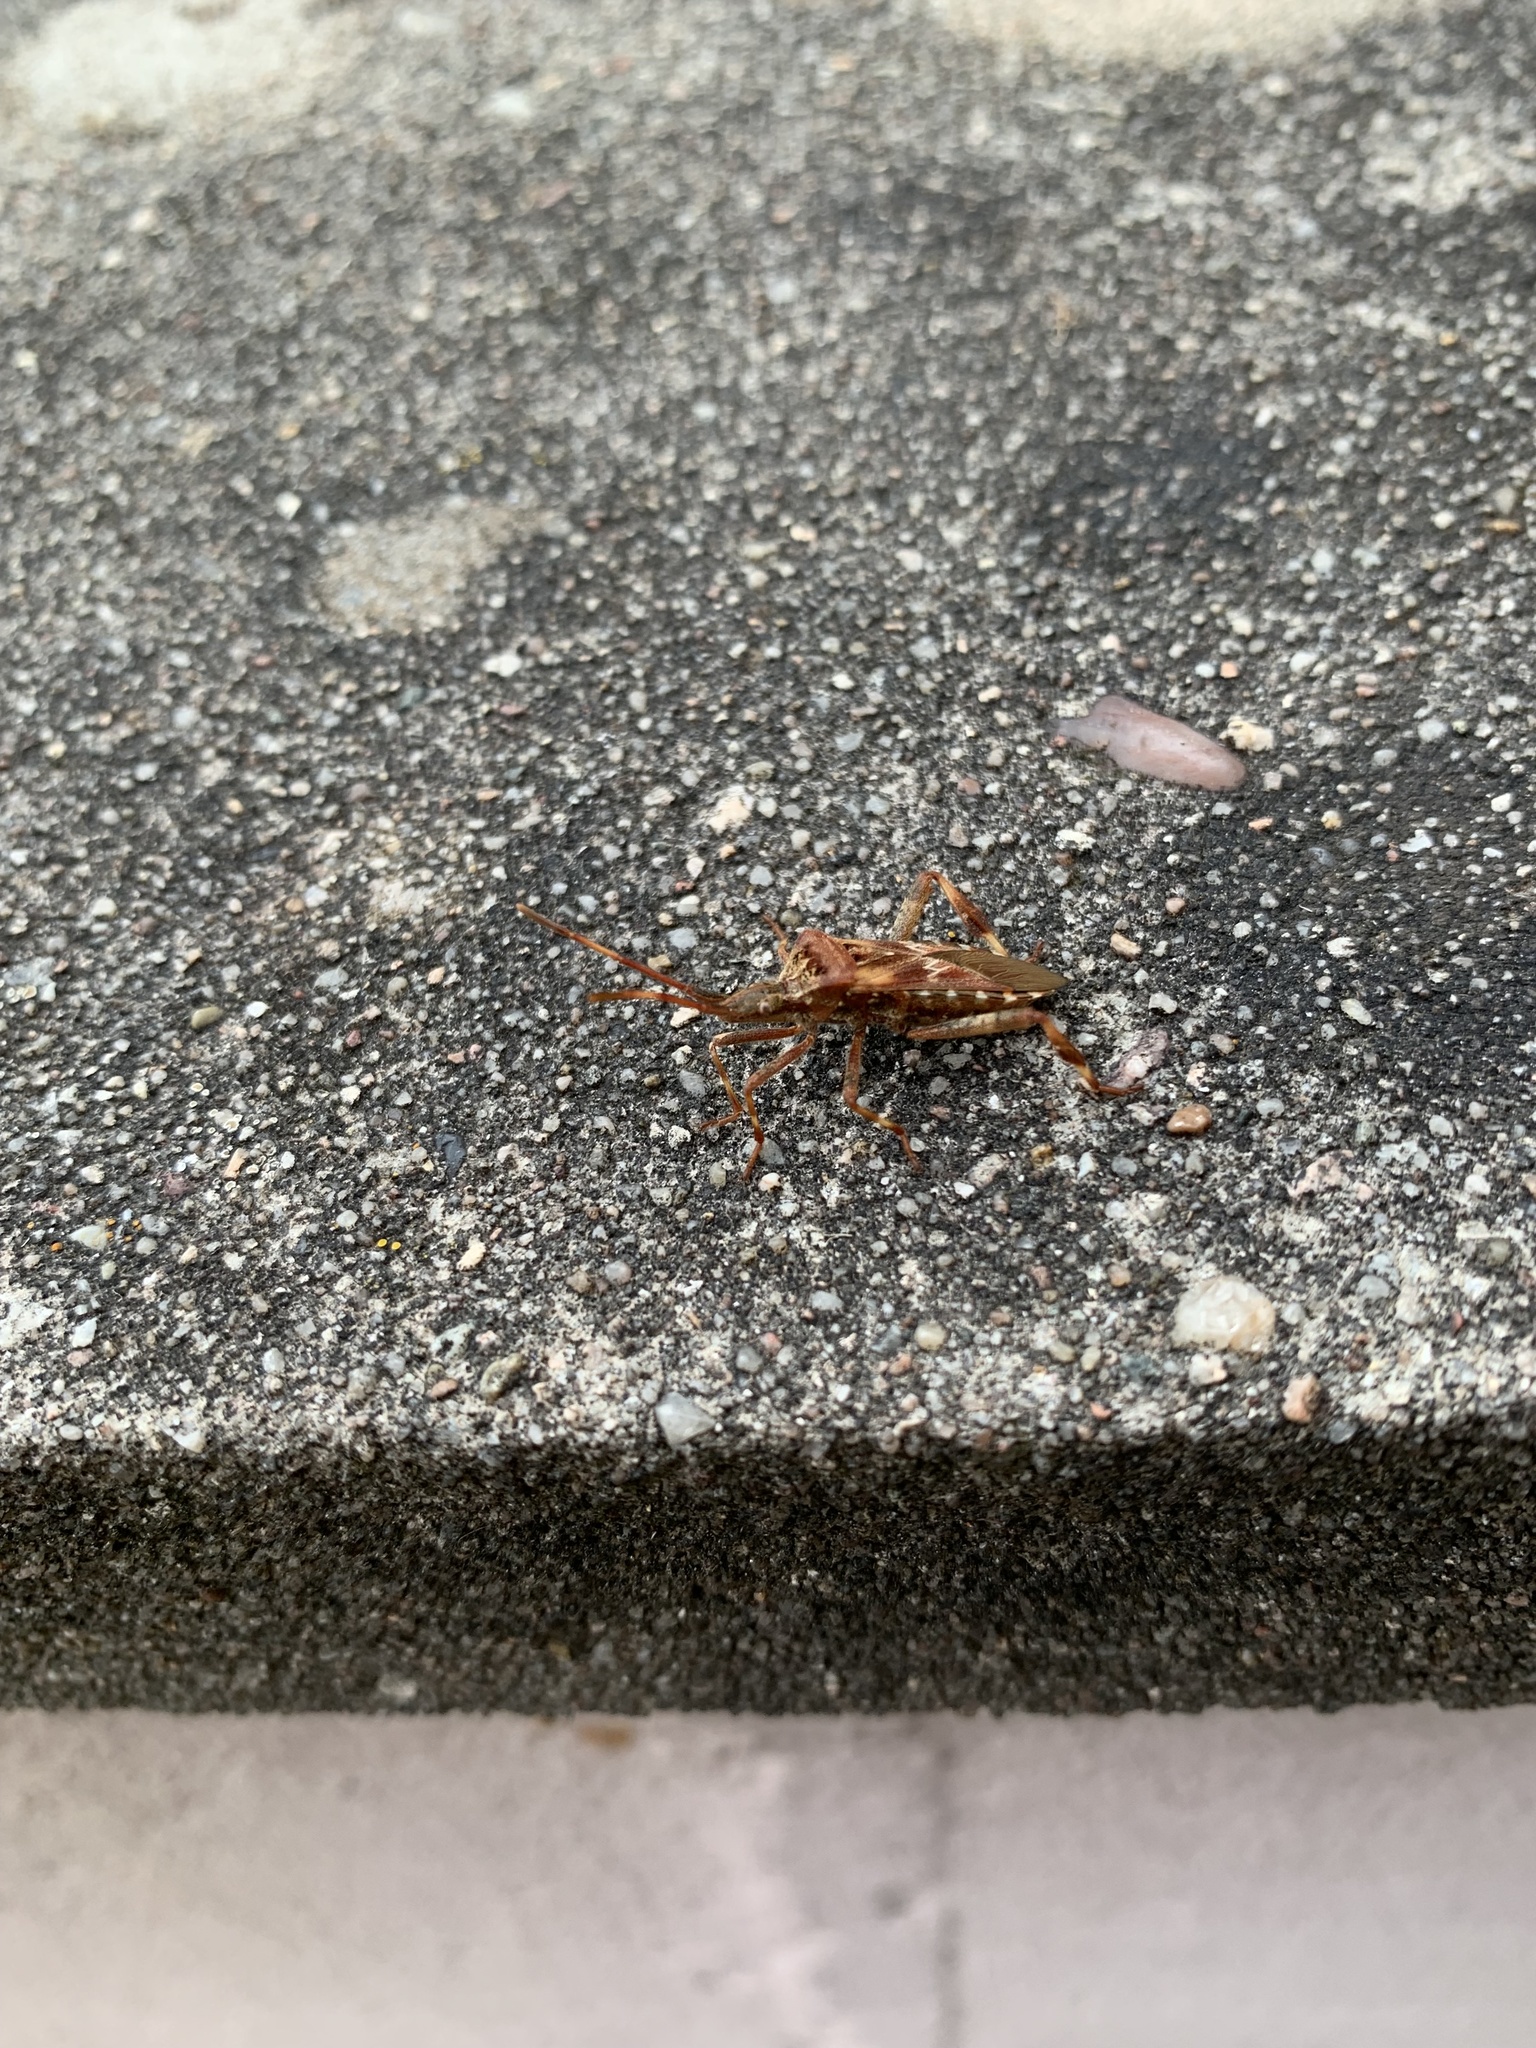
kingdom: Animalia
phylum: Arthropoda
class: Insecta
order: Hemiptera
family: Coreidae
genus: Leptoglossus
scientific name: Leptoglossus occidentalis
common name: Western conifer-seed bug
